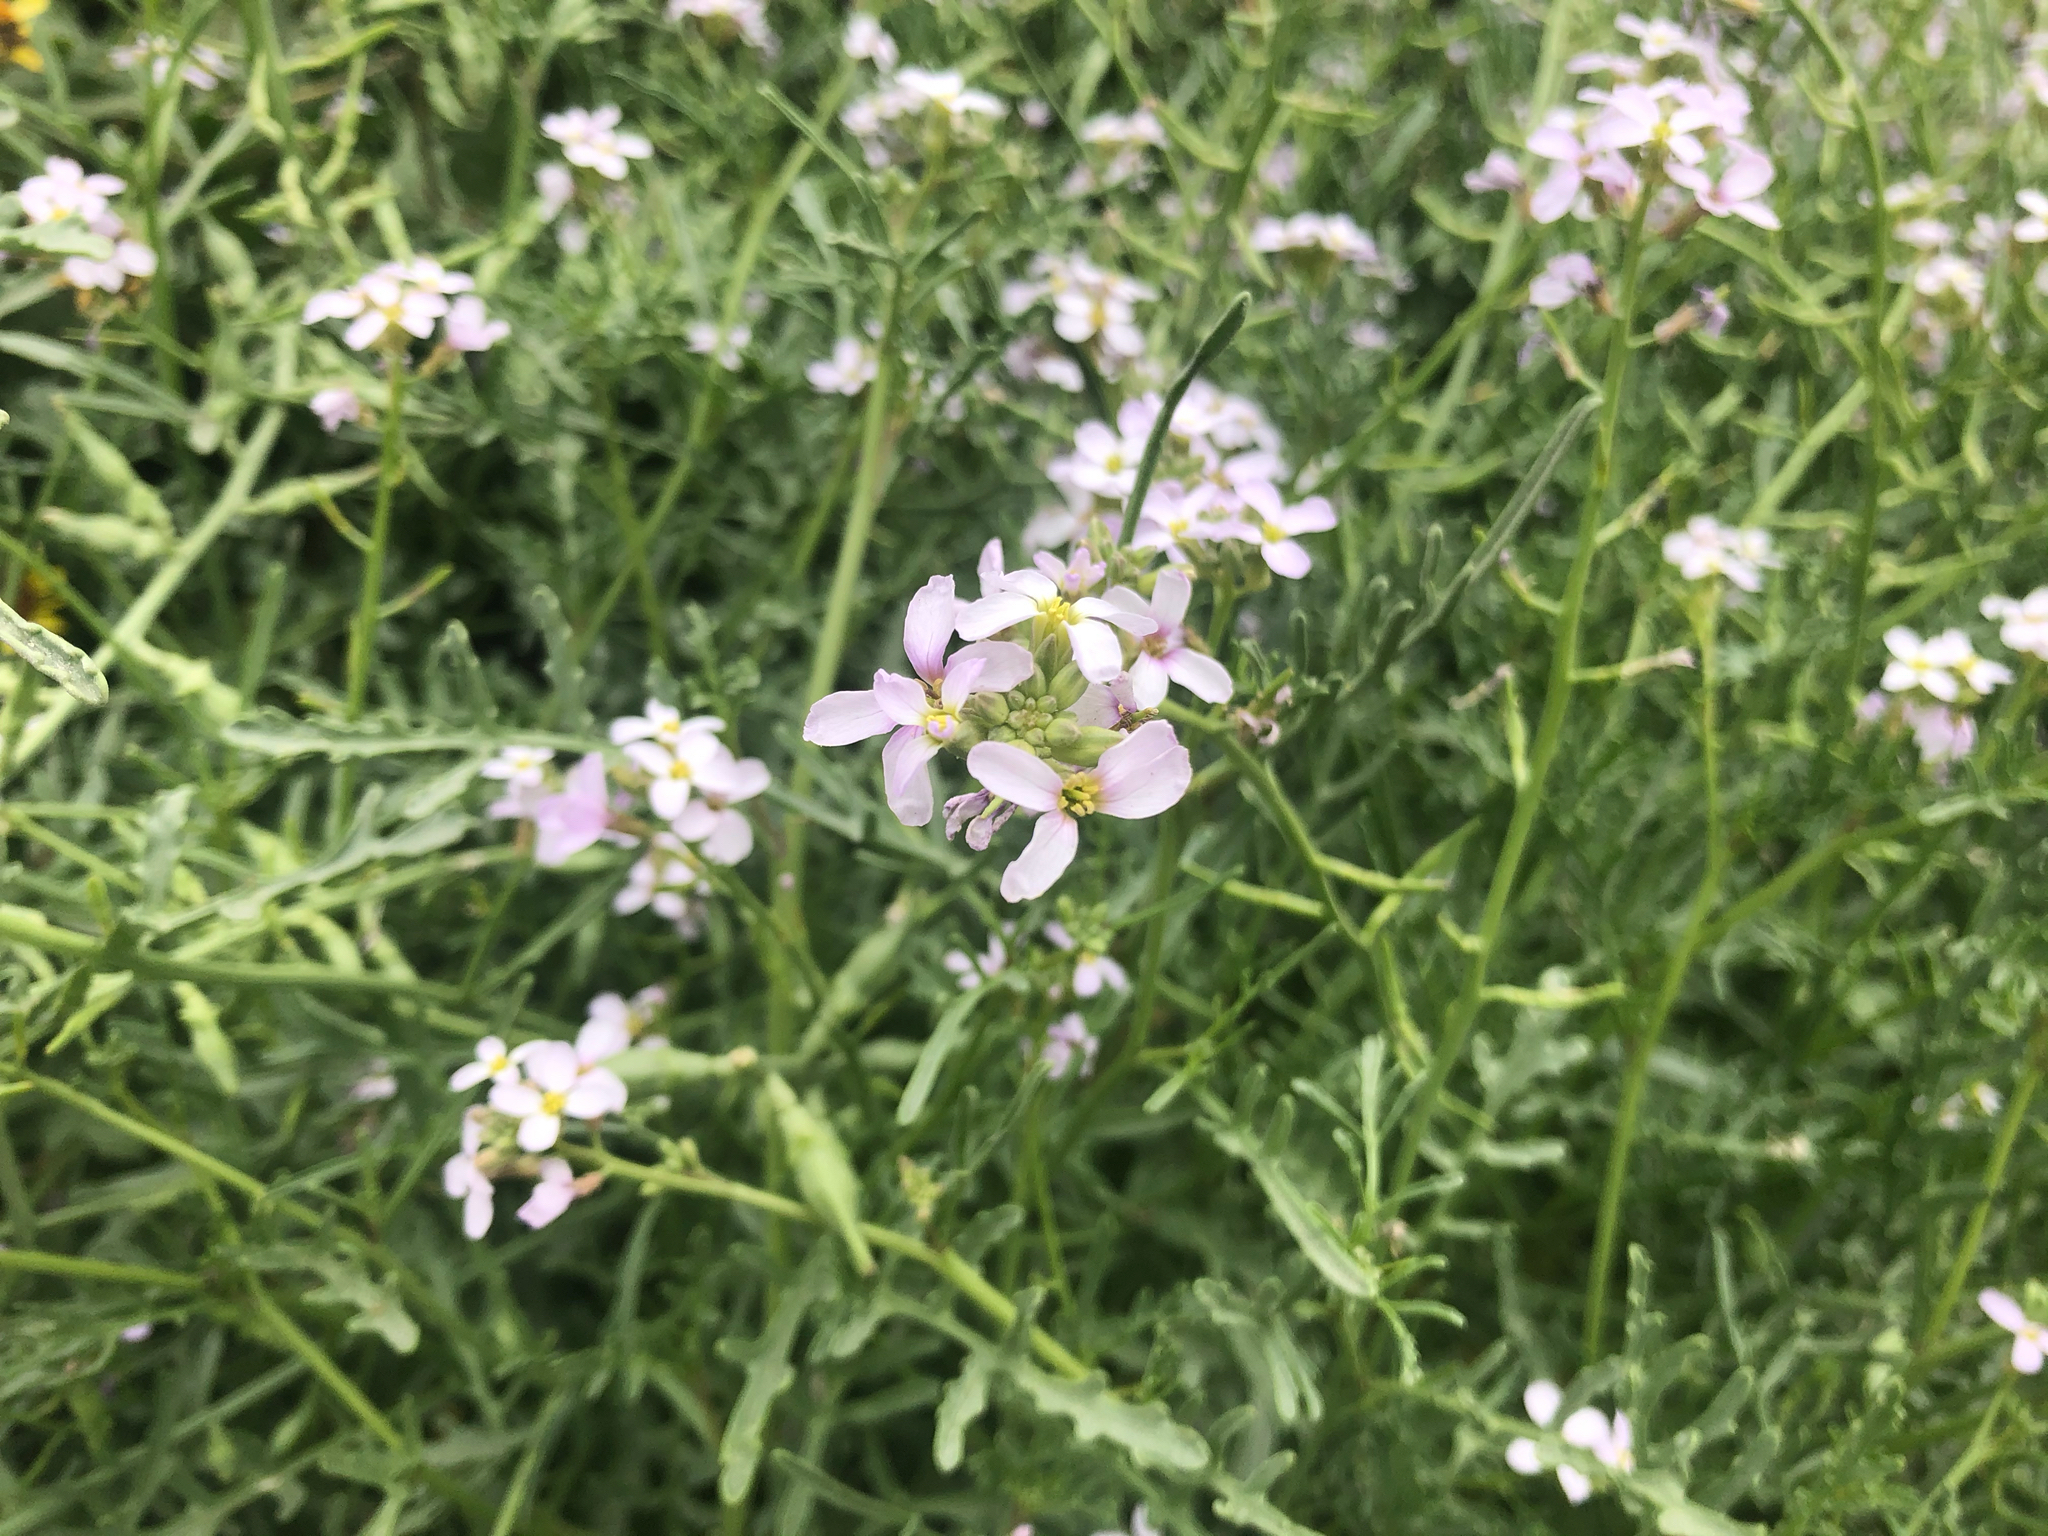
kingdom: Plantae
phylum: Tracheophyta
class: Magnoliopsida
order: Brassicales
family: Brassicaceae
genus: Cakile
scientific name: Cakile maritima
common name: Sea rocket
